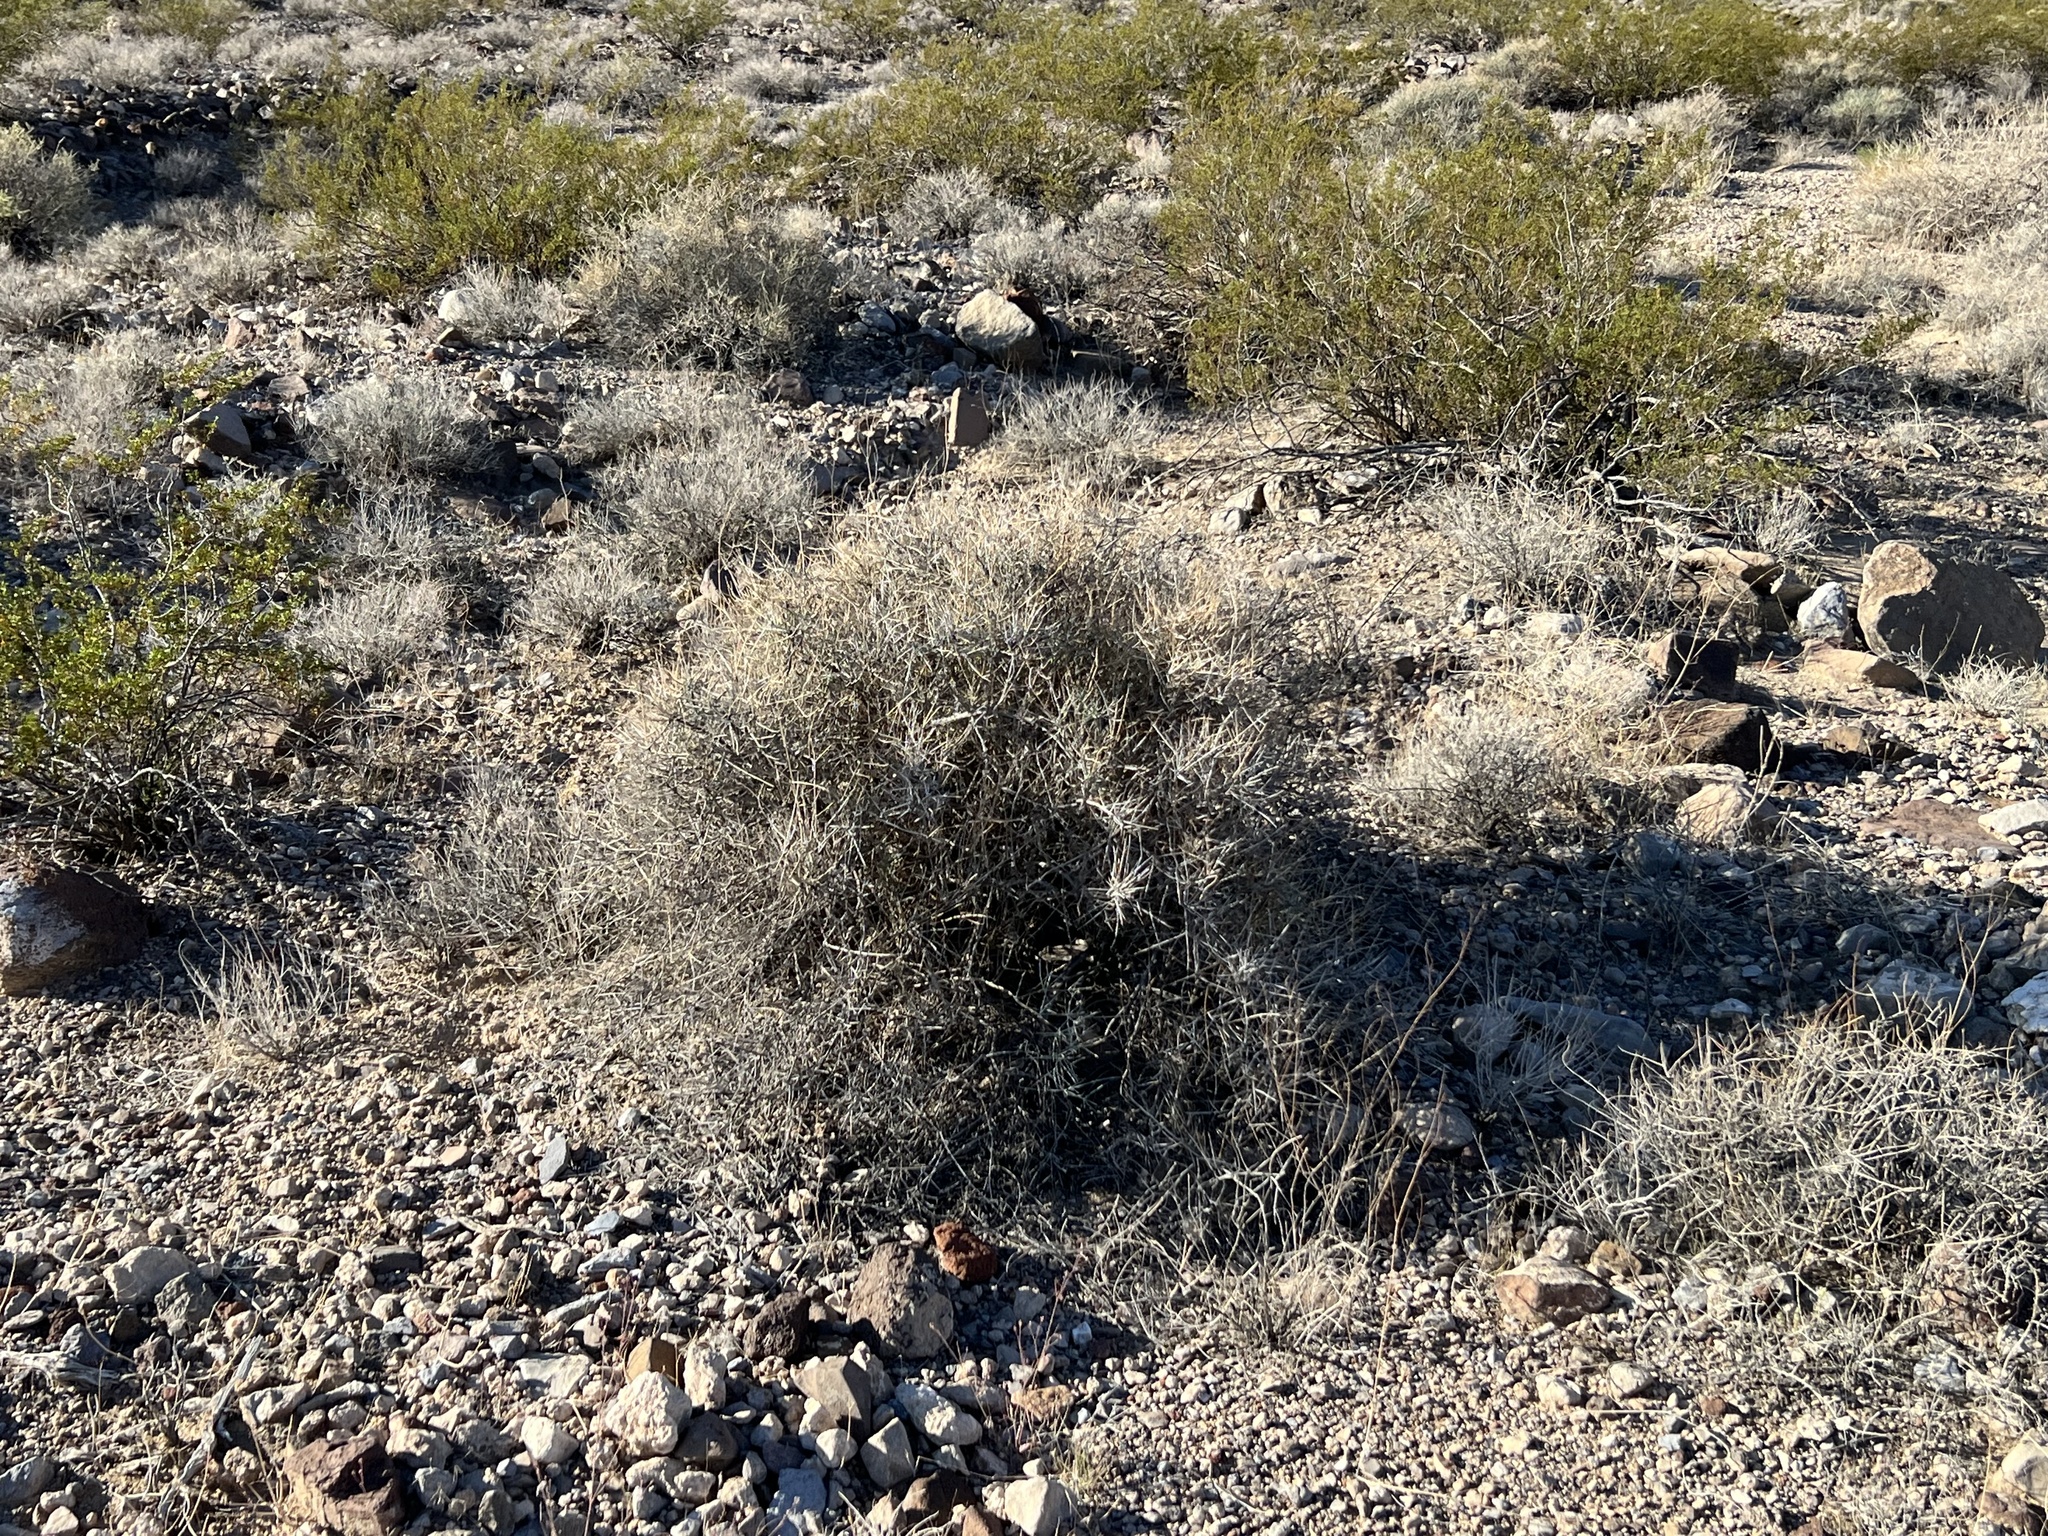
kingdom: Plantae
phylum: Tracheophyta
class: Gnetopsida
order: Ephedrales
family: Ephedraceae
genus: Ephedra
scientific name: Ephedra nevadensis
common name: Gray ephedra
